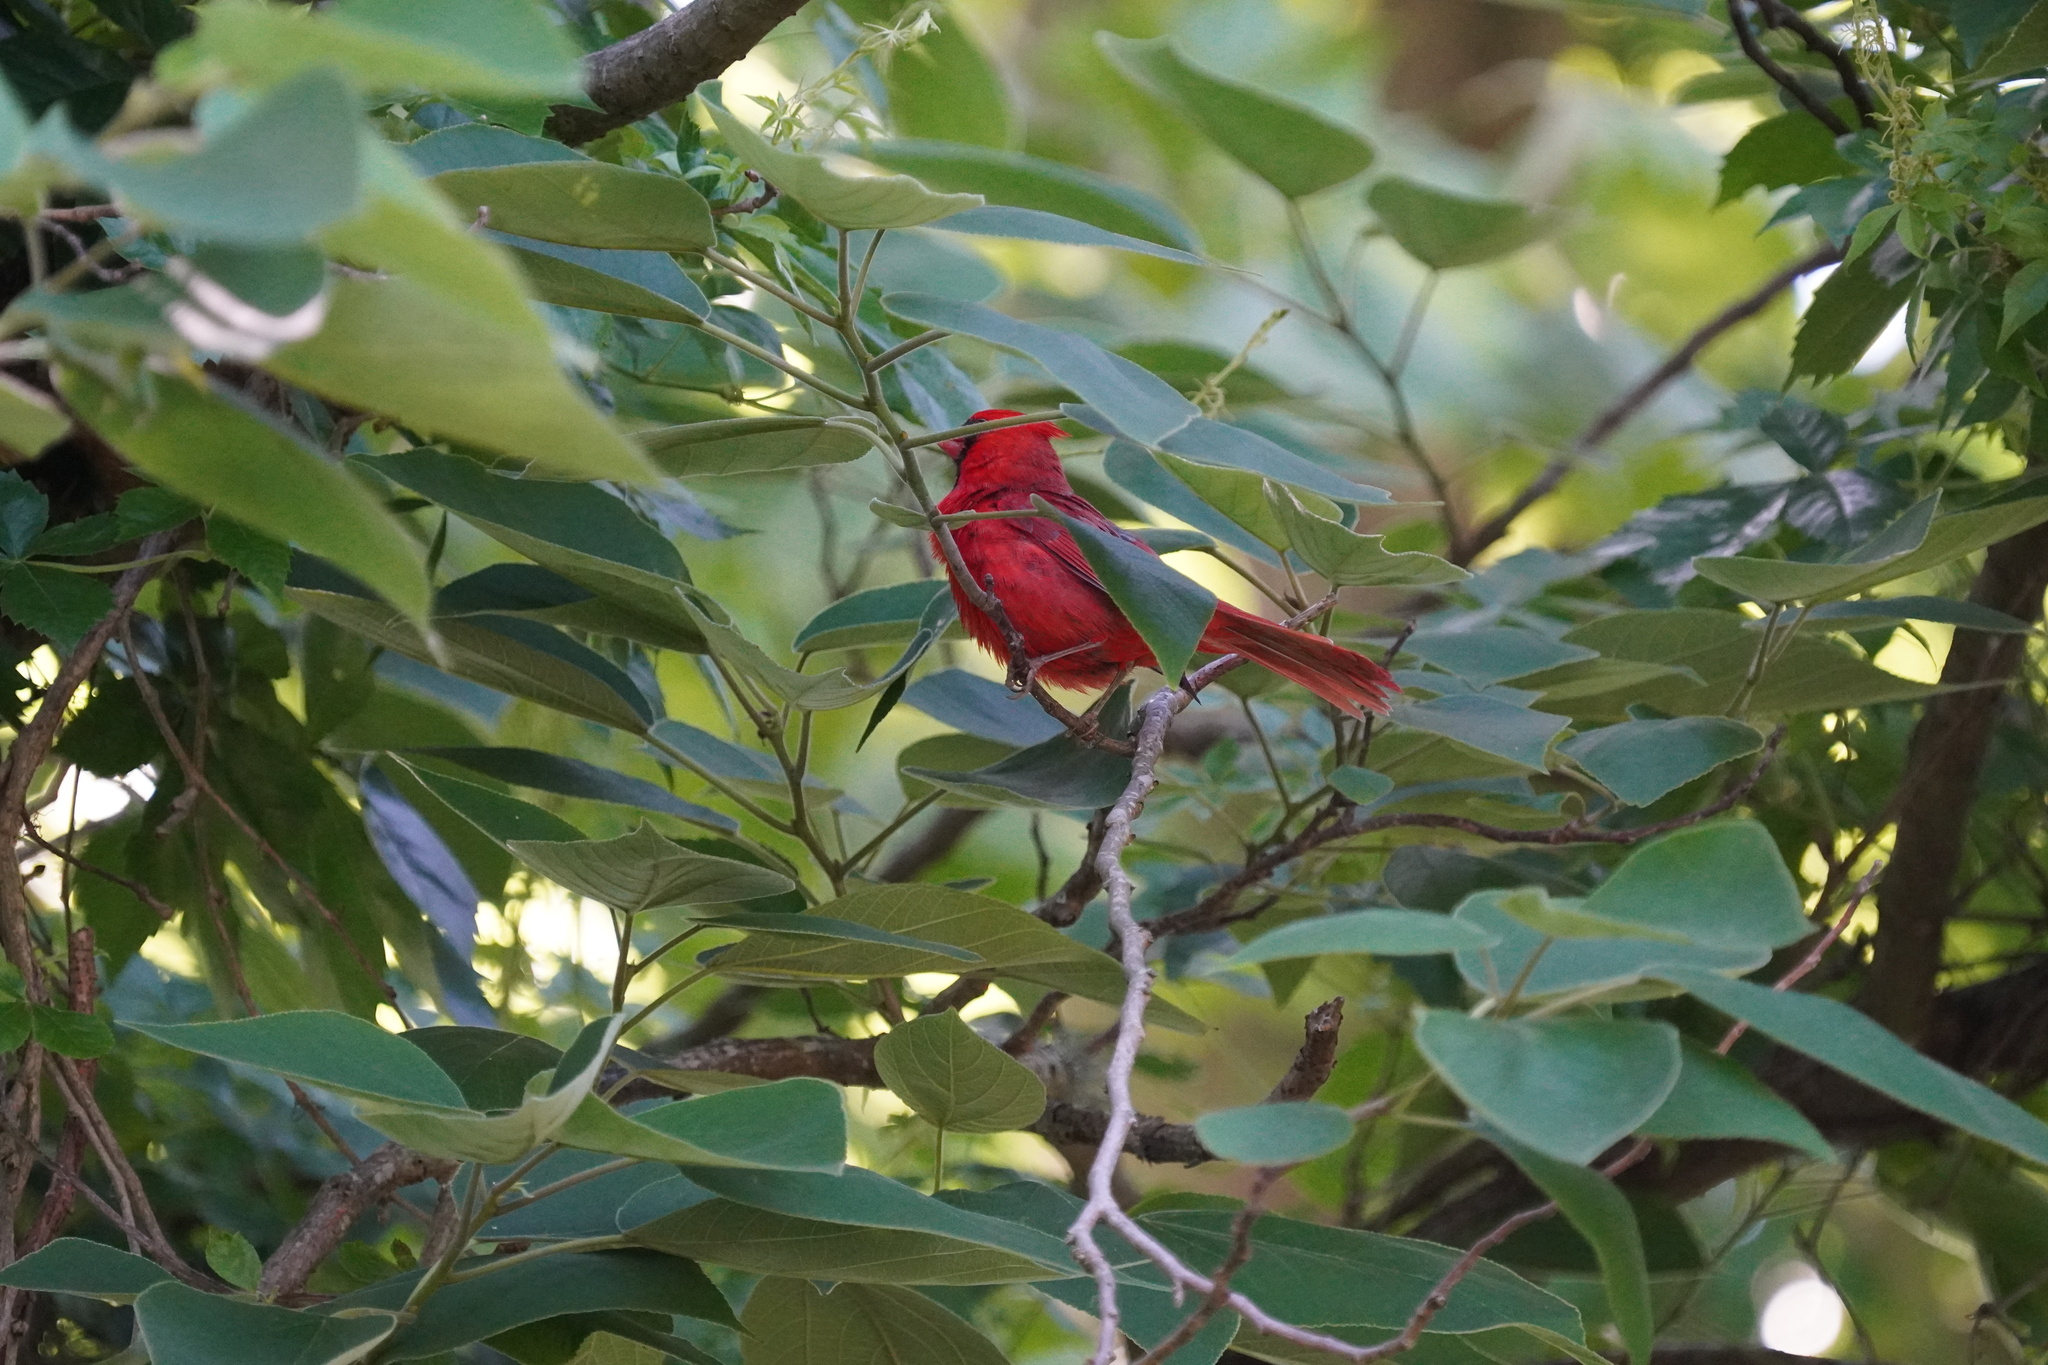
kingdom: Animalia
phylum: Chordata
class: Aves
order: Passeriformes
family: Cardinalidae
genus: Cardinalis
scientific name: Cardinalis cardinalis
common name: Northern cardinal
